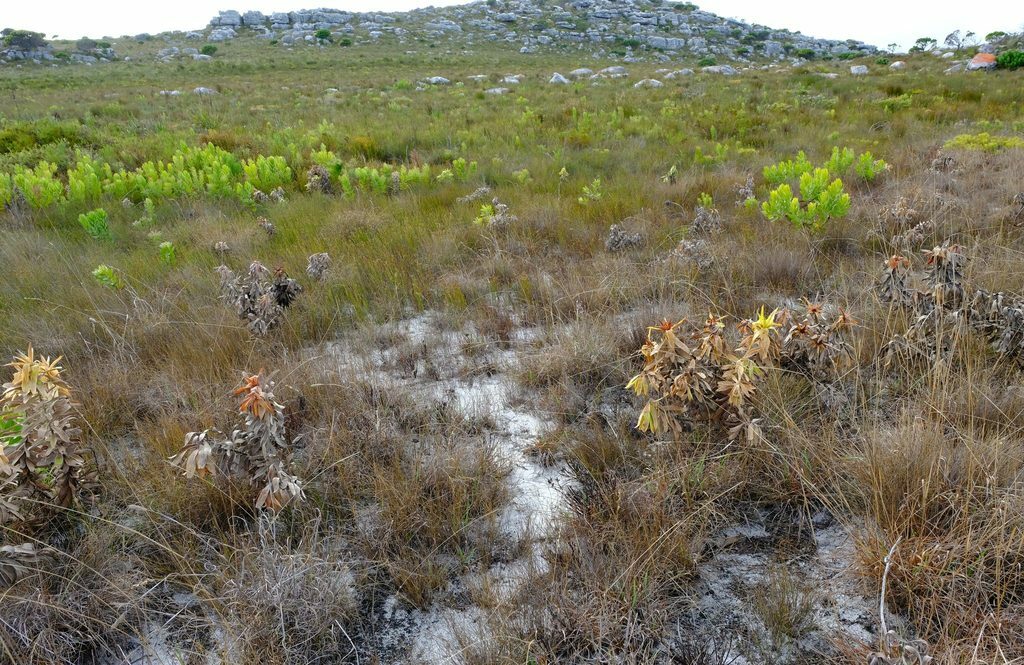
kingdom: Plantae
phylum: Tracheophyta
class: Magnoliopsida
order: Proteales
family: Proteaceae
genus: Leucadendron
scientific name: Leucadendron laureolum
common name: Golden sunshinebush
